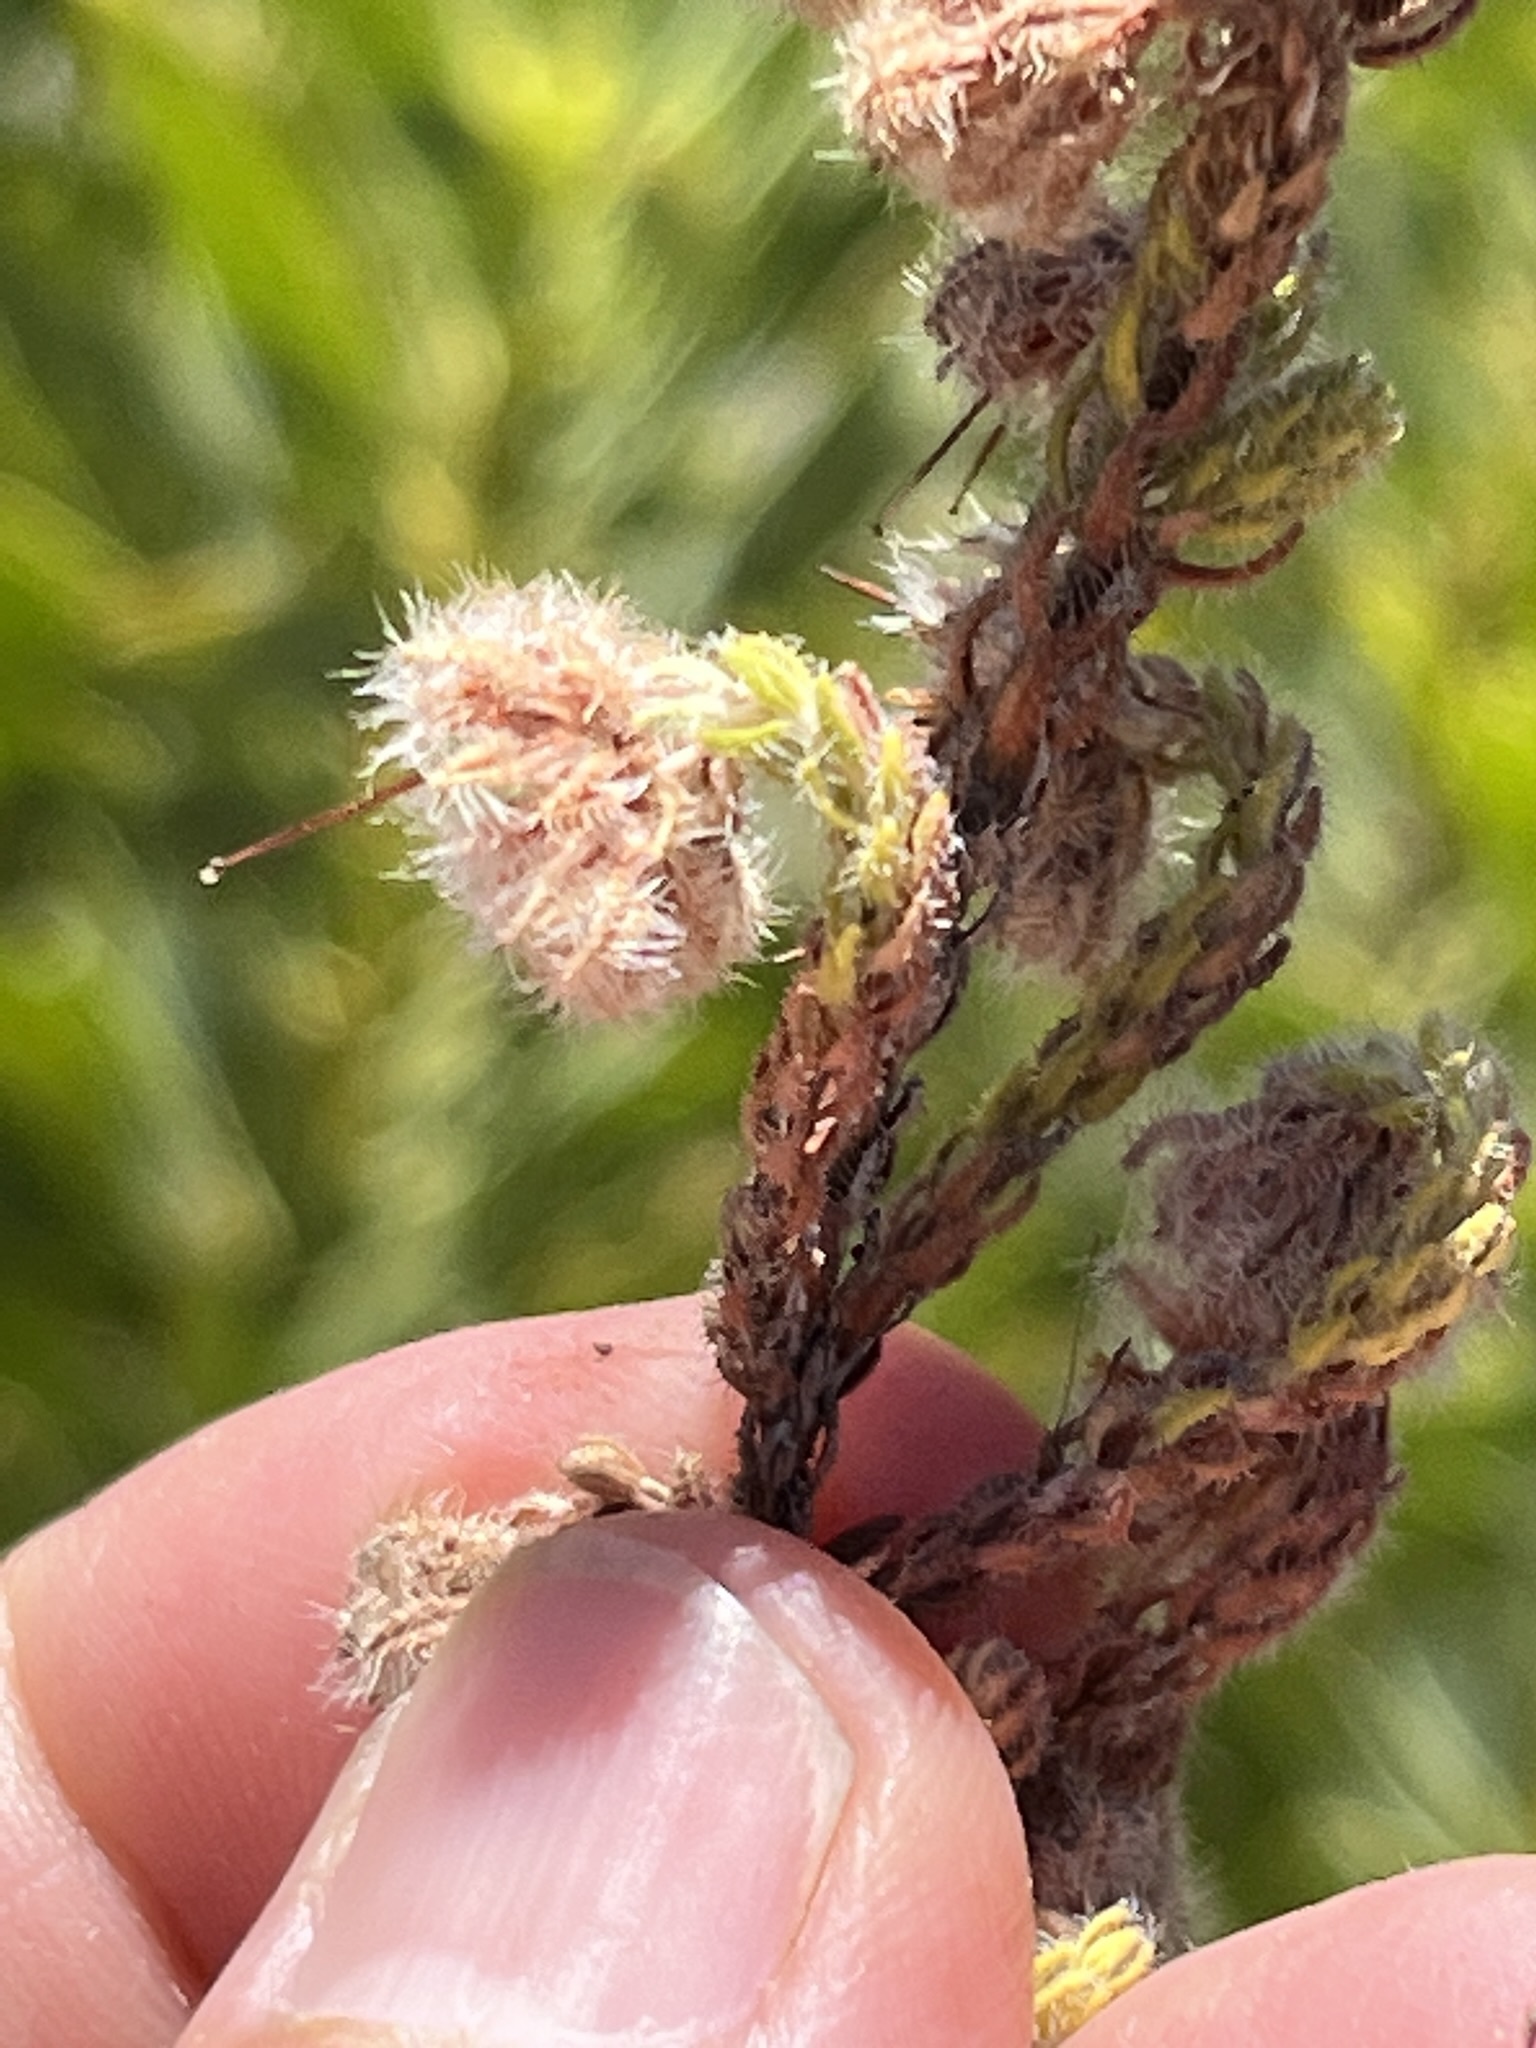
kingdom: Plantae
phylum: Tracheophyta
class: Magnoliopsida
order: Ericales
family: Ericaceae
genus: Erica
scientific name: Erica senilis
